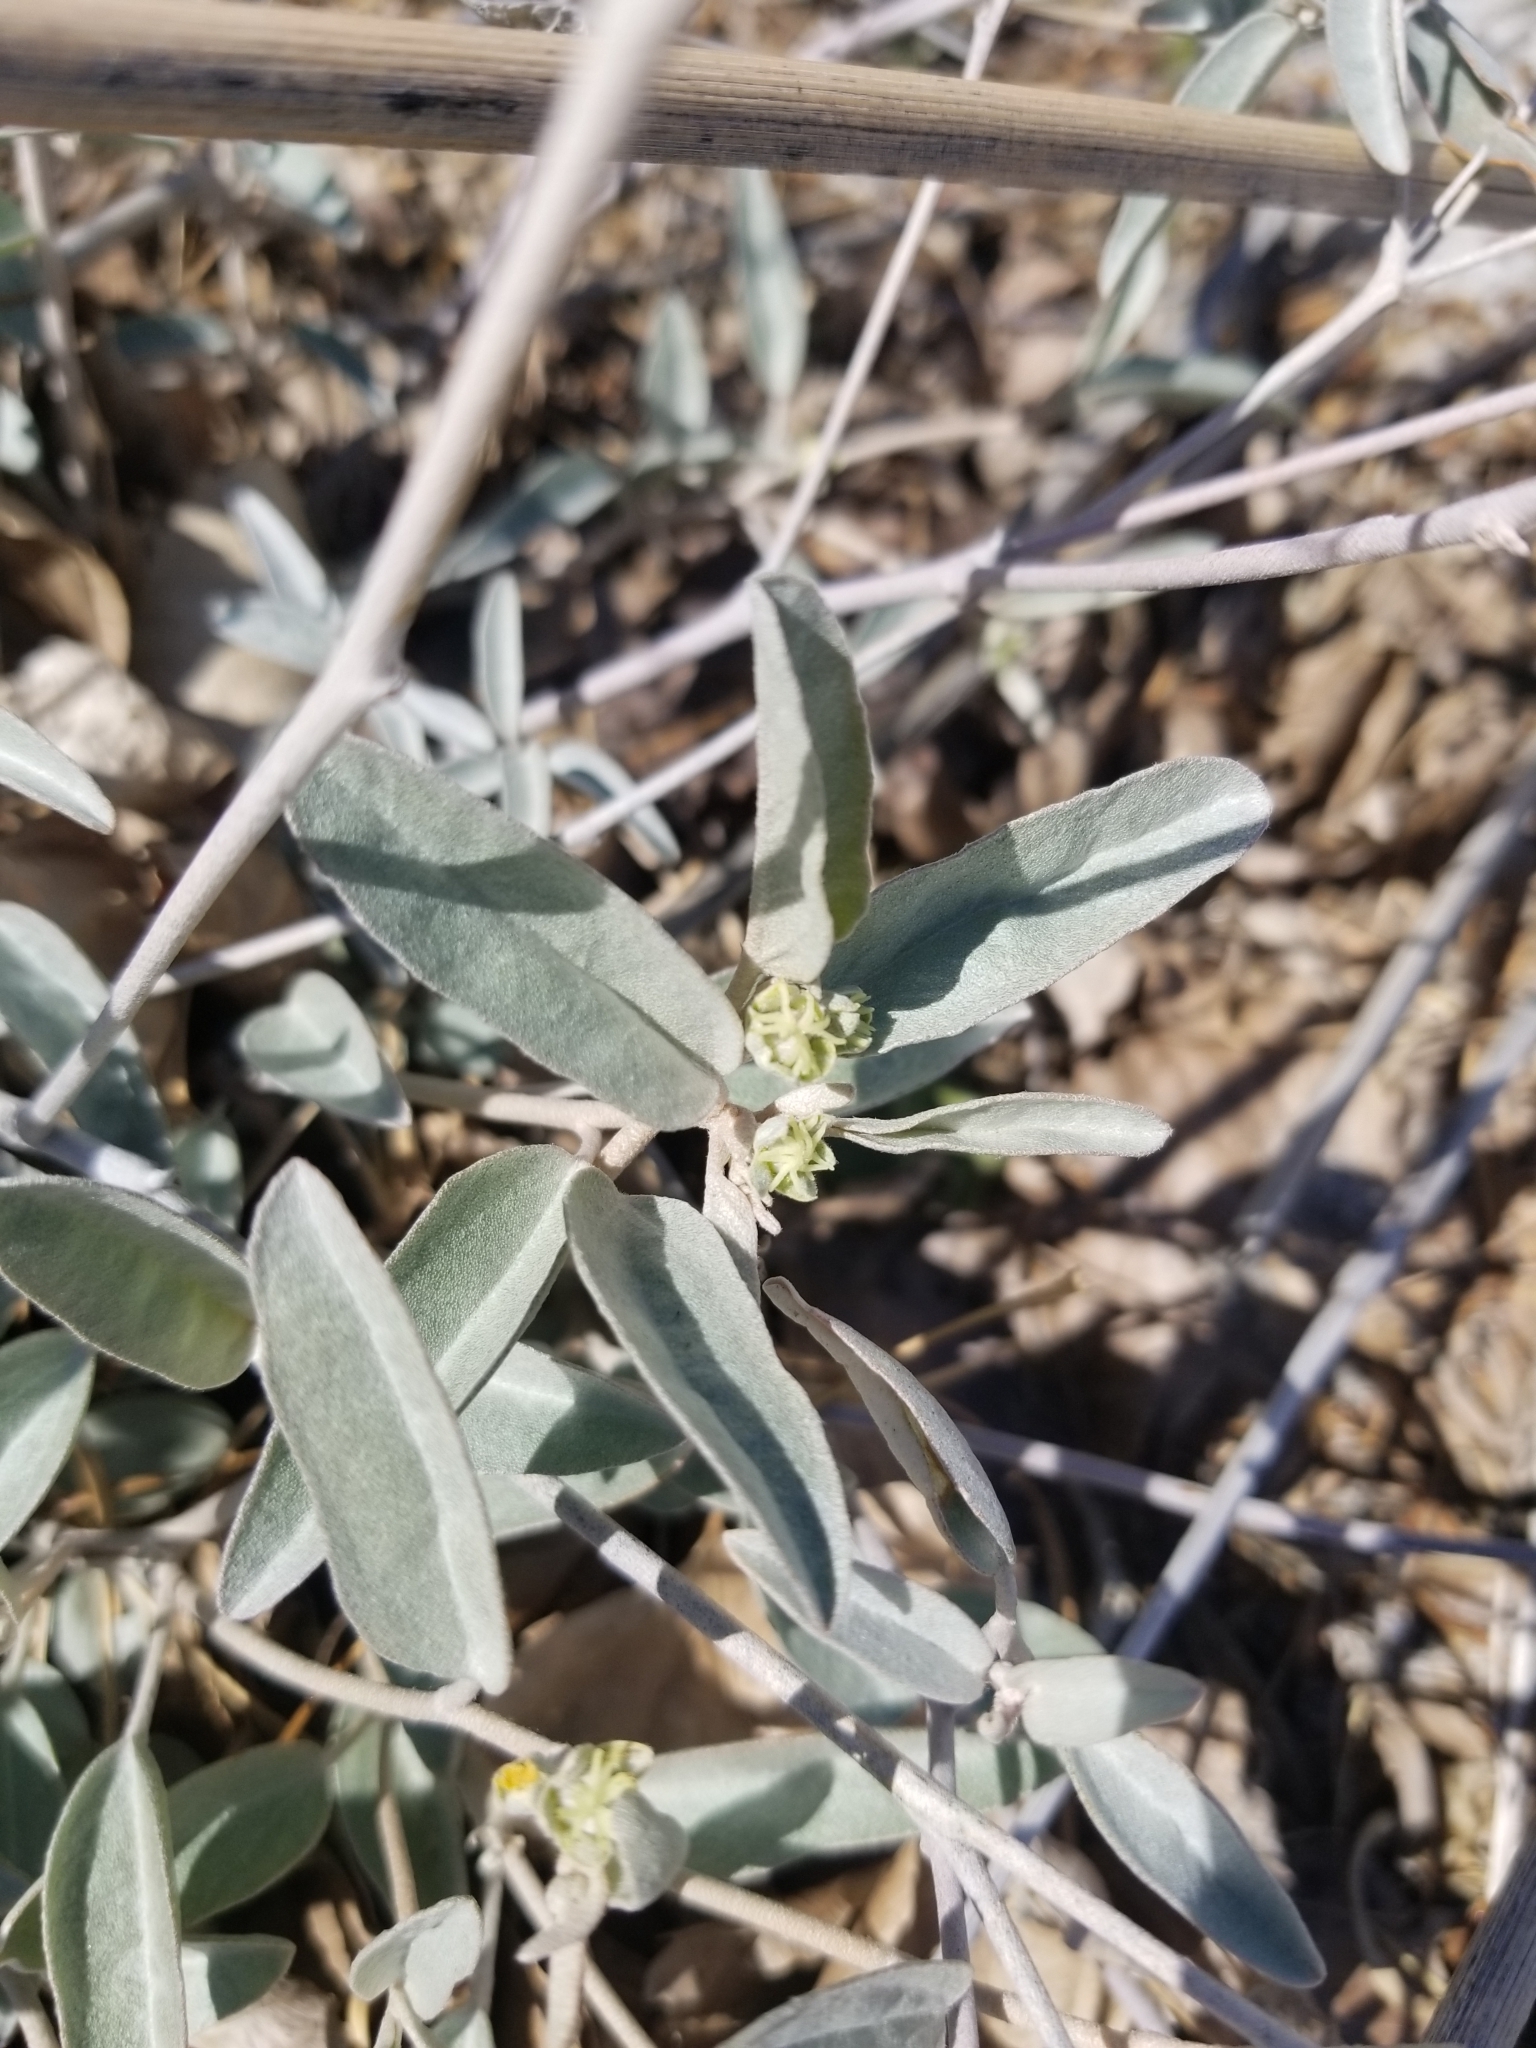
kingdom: Plantae
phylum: Tracheophyta
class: Magnoliopsida
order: Malpighiales
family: Euphorbiaceae
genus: Croton
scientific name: Croton californicus
